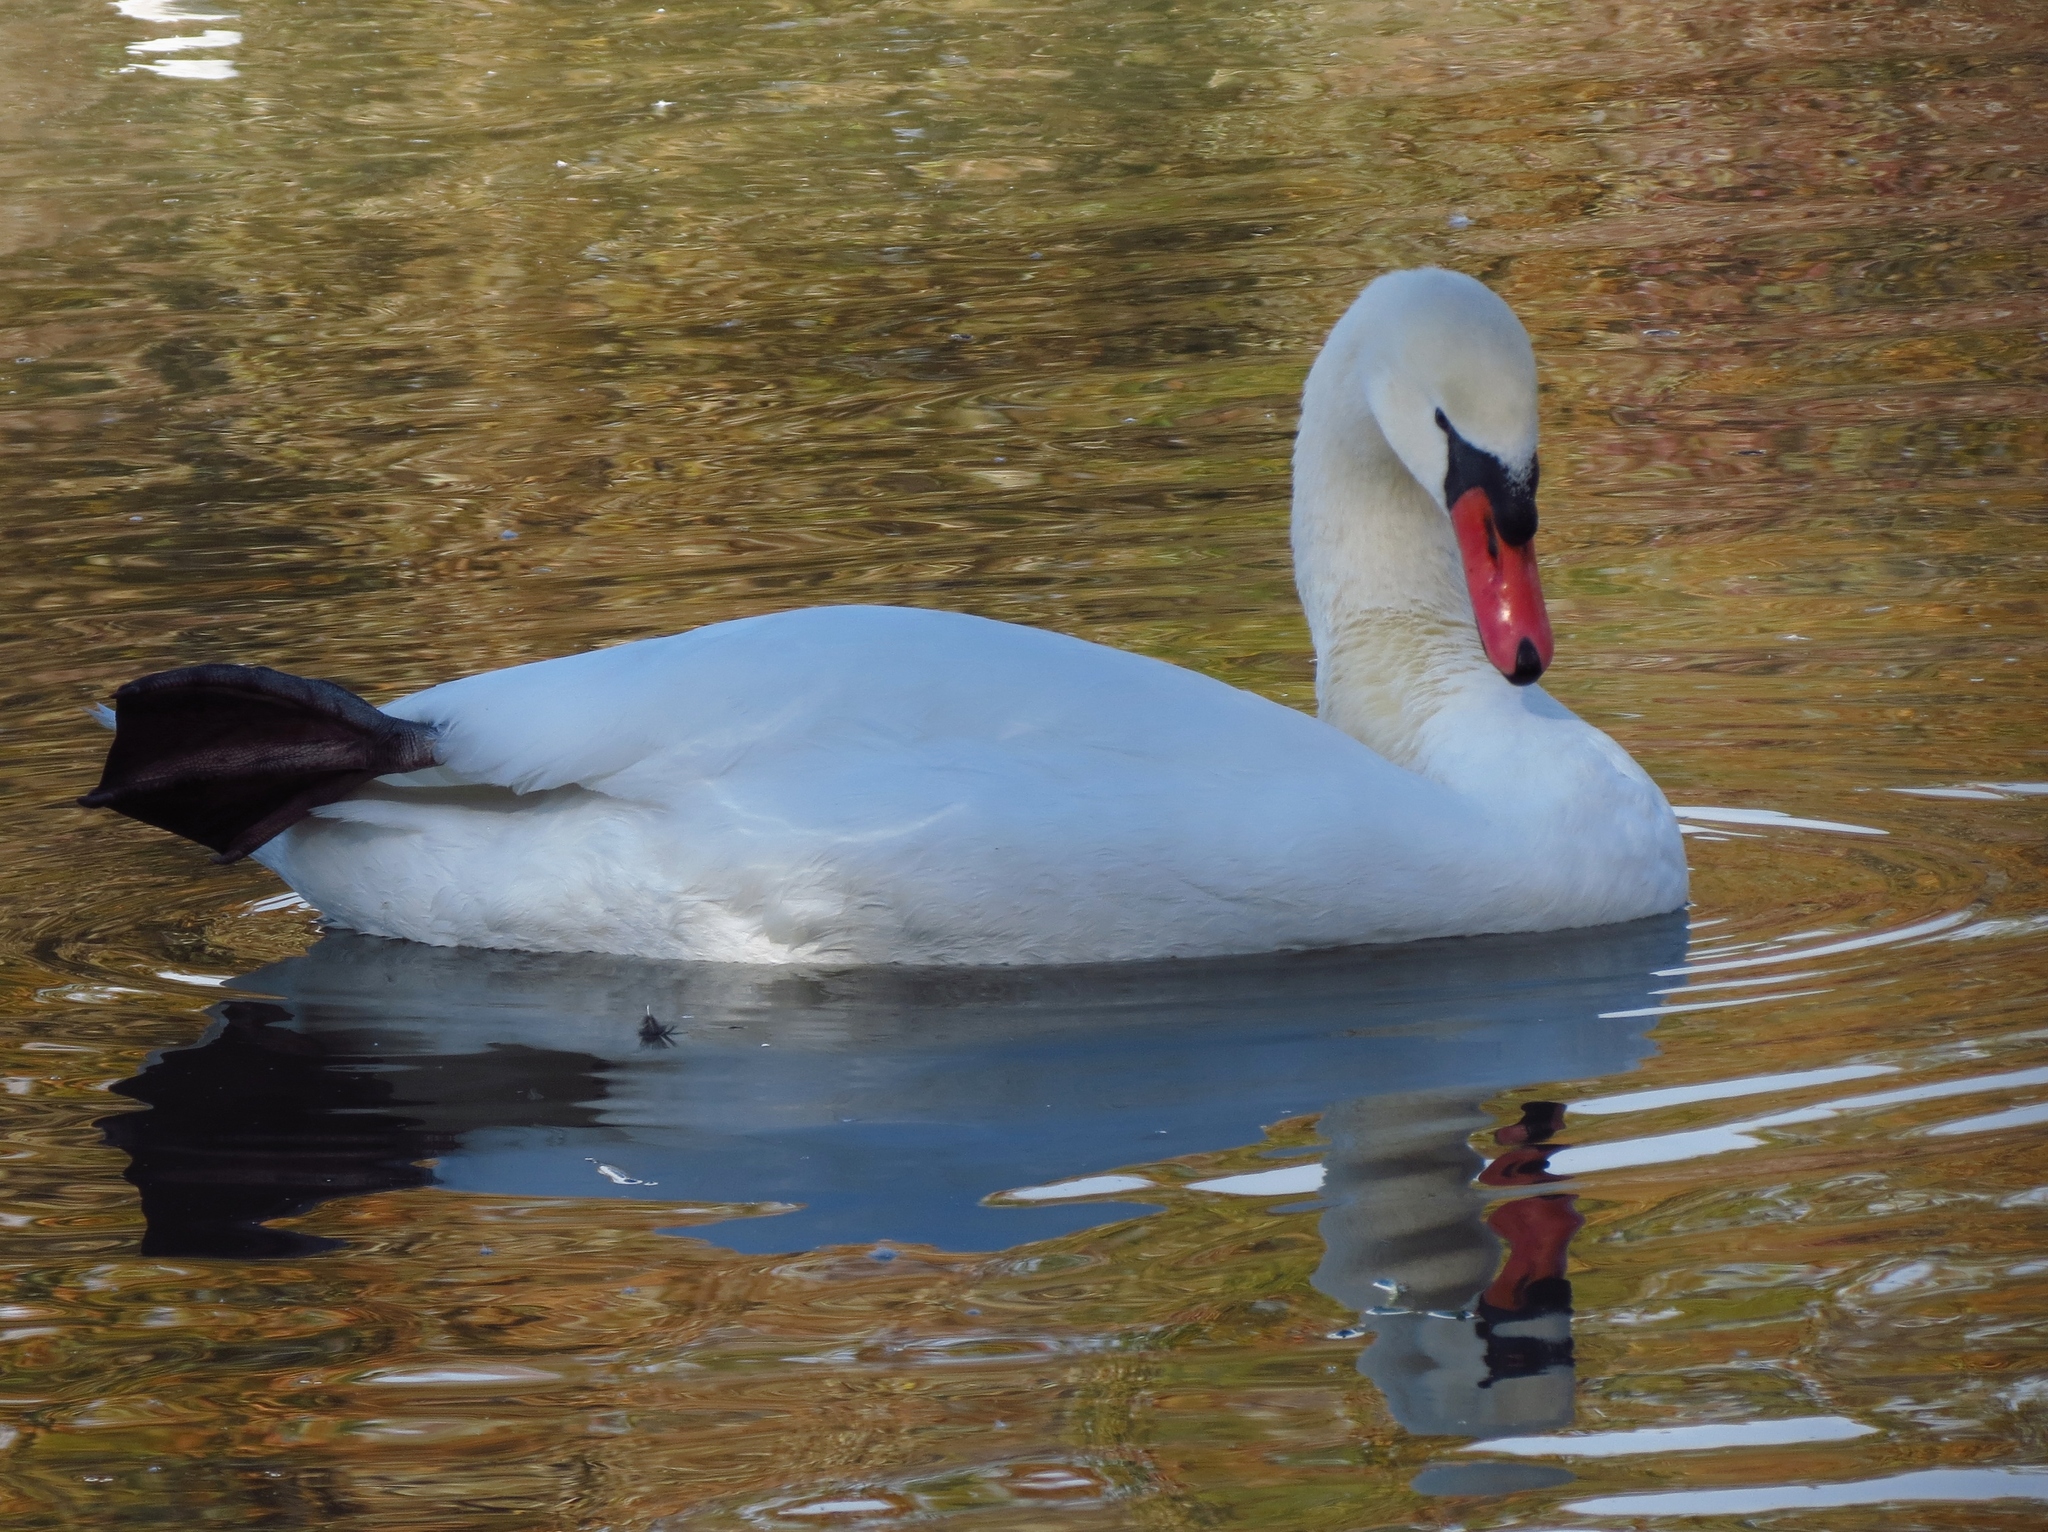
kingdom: Animalia
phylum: Chordata
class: Aves
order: Anseriformes
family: Anatidae
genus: Cygnus
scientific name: Cygnus olor
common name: Mute swan
